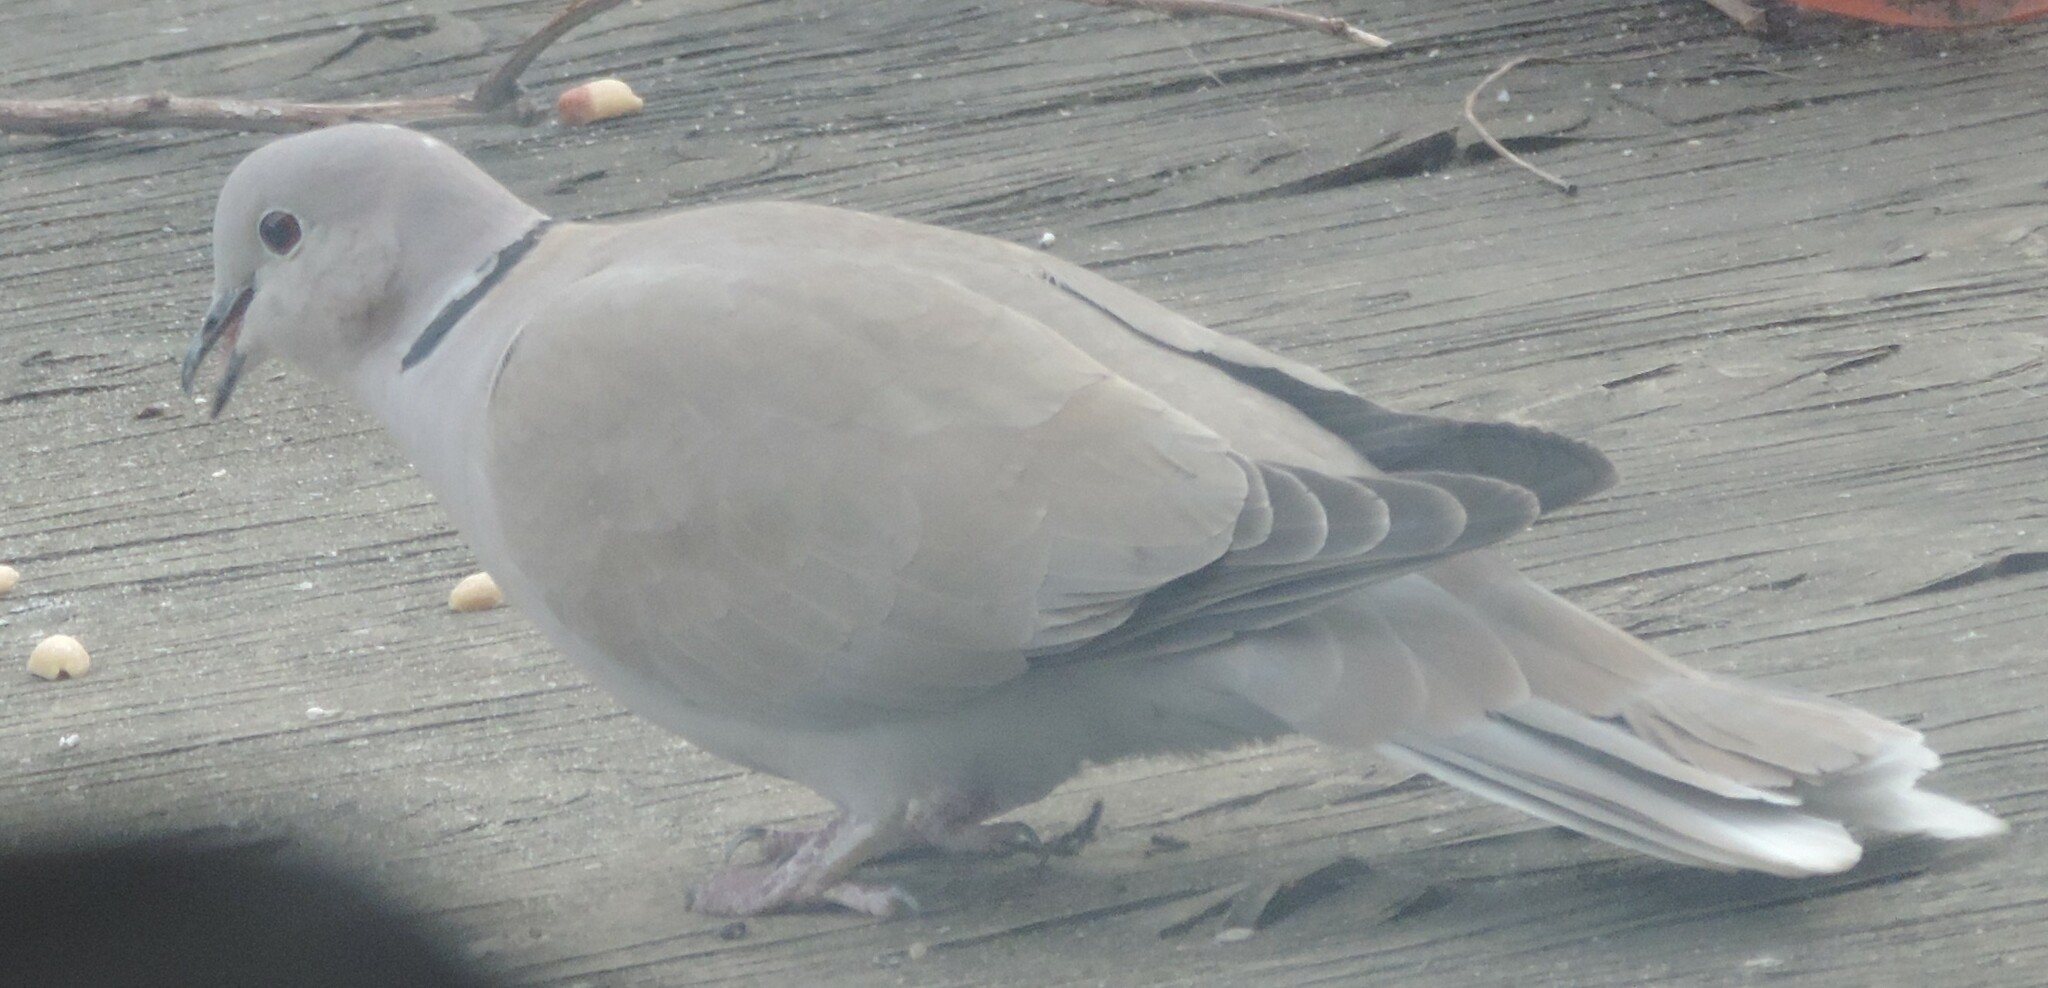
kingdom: Animalia
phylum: Chordata
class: Aves
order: Columbiformes
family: Columbidae
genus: Streptopelia
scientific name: Streptopelia decaocto
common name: Eurasian collared dove
